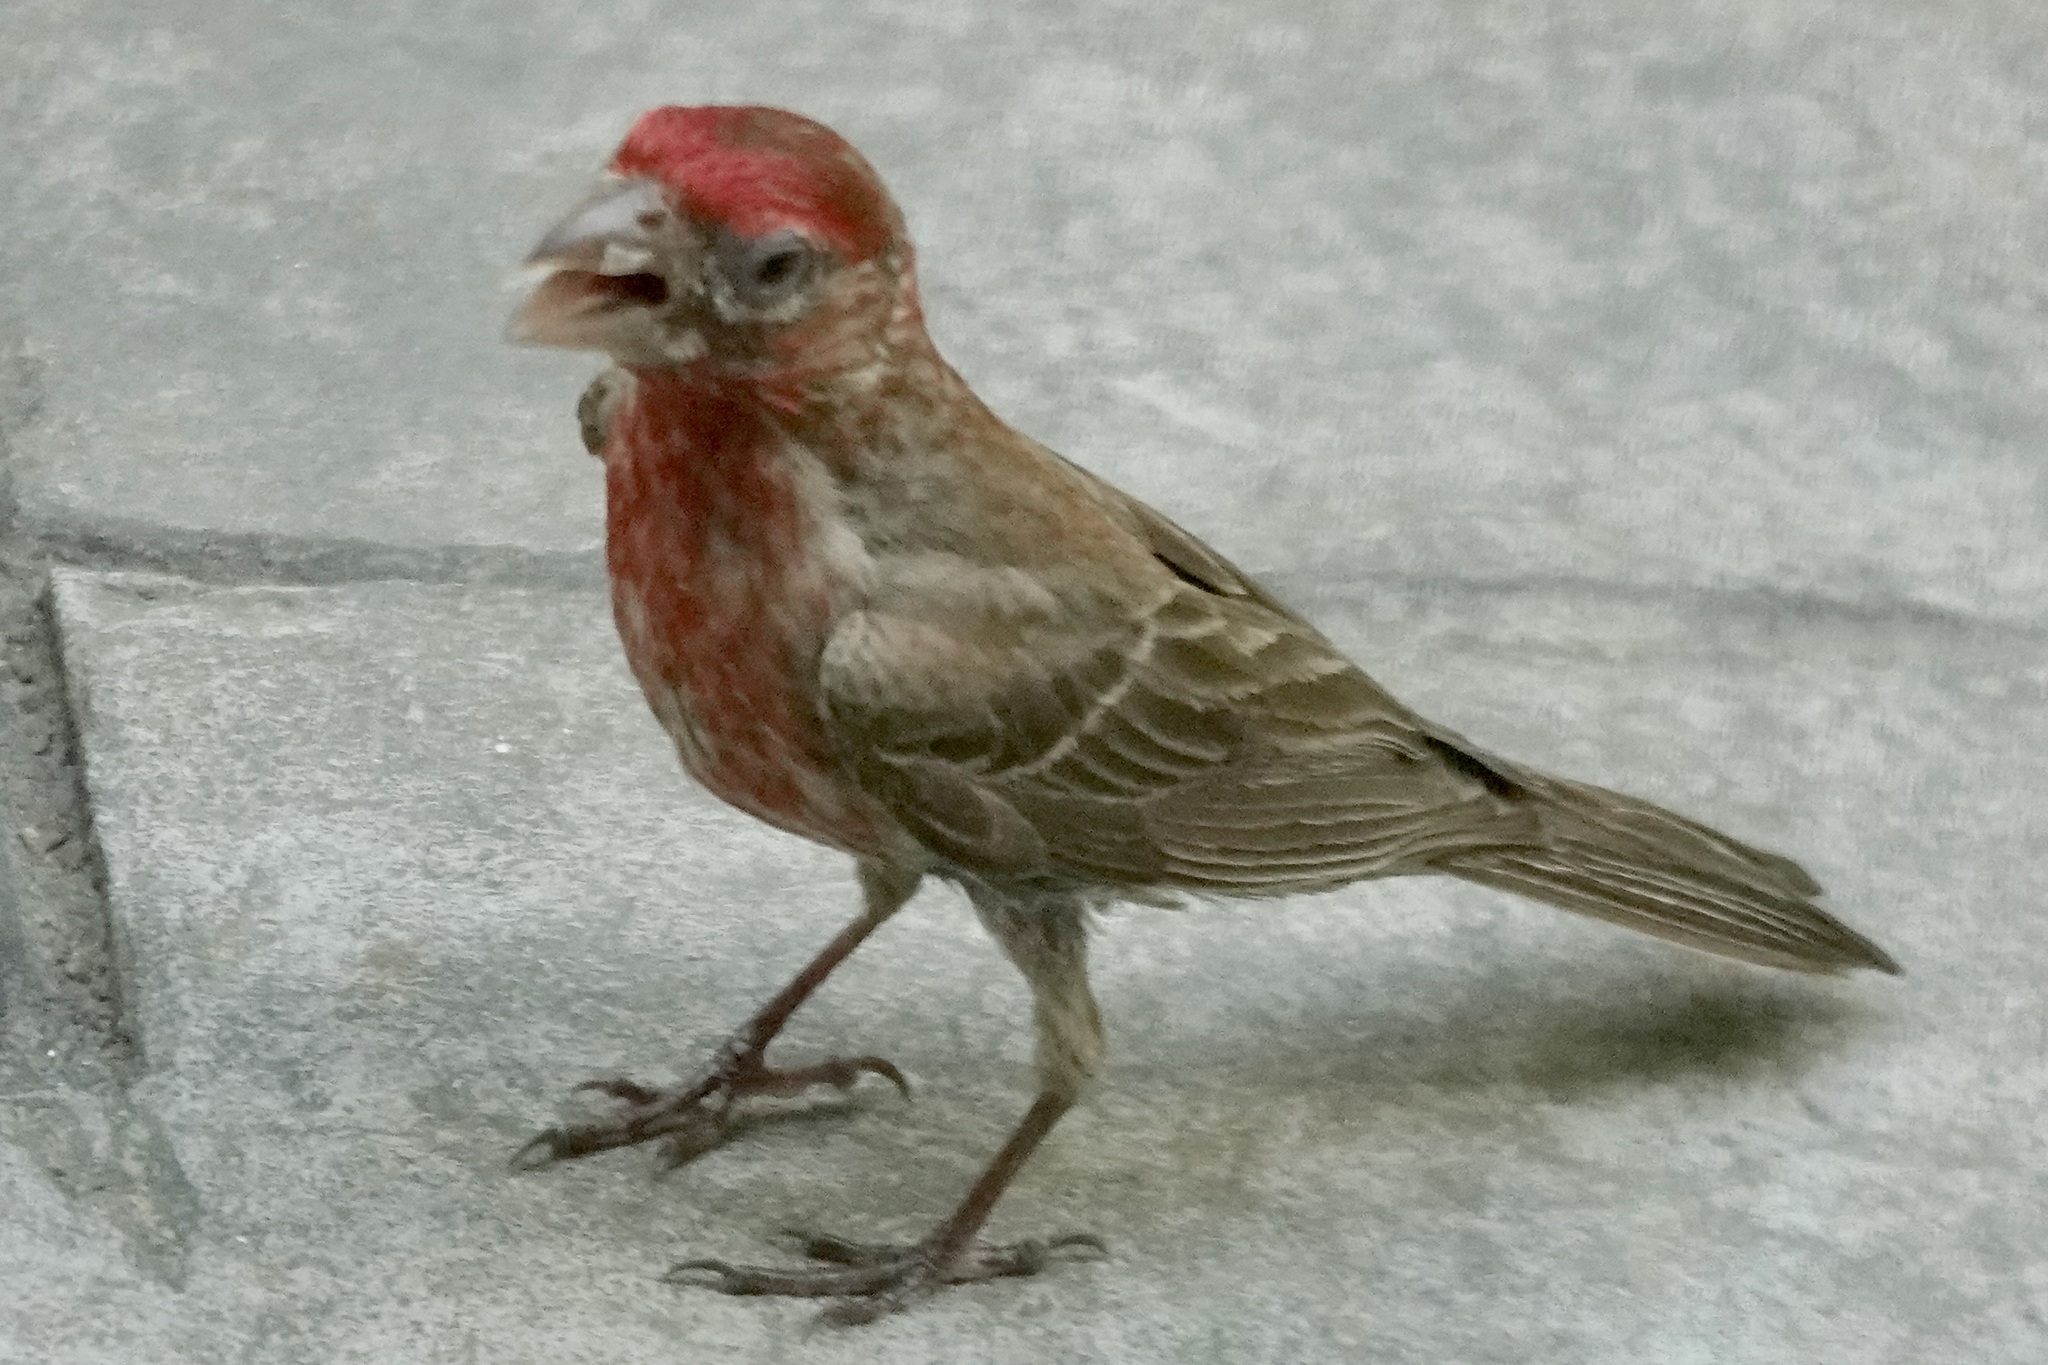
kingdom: Animalia
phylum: Chordata
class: Aves
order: Passeriformes
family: Fringillidae
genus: Haemorhous
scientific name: Haemorhous mexicanus
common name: House finch
